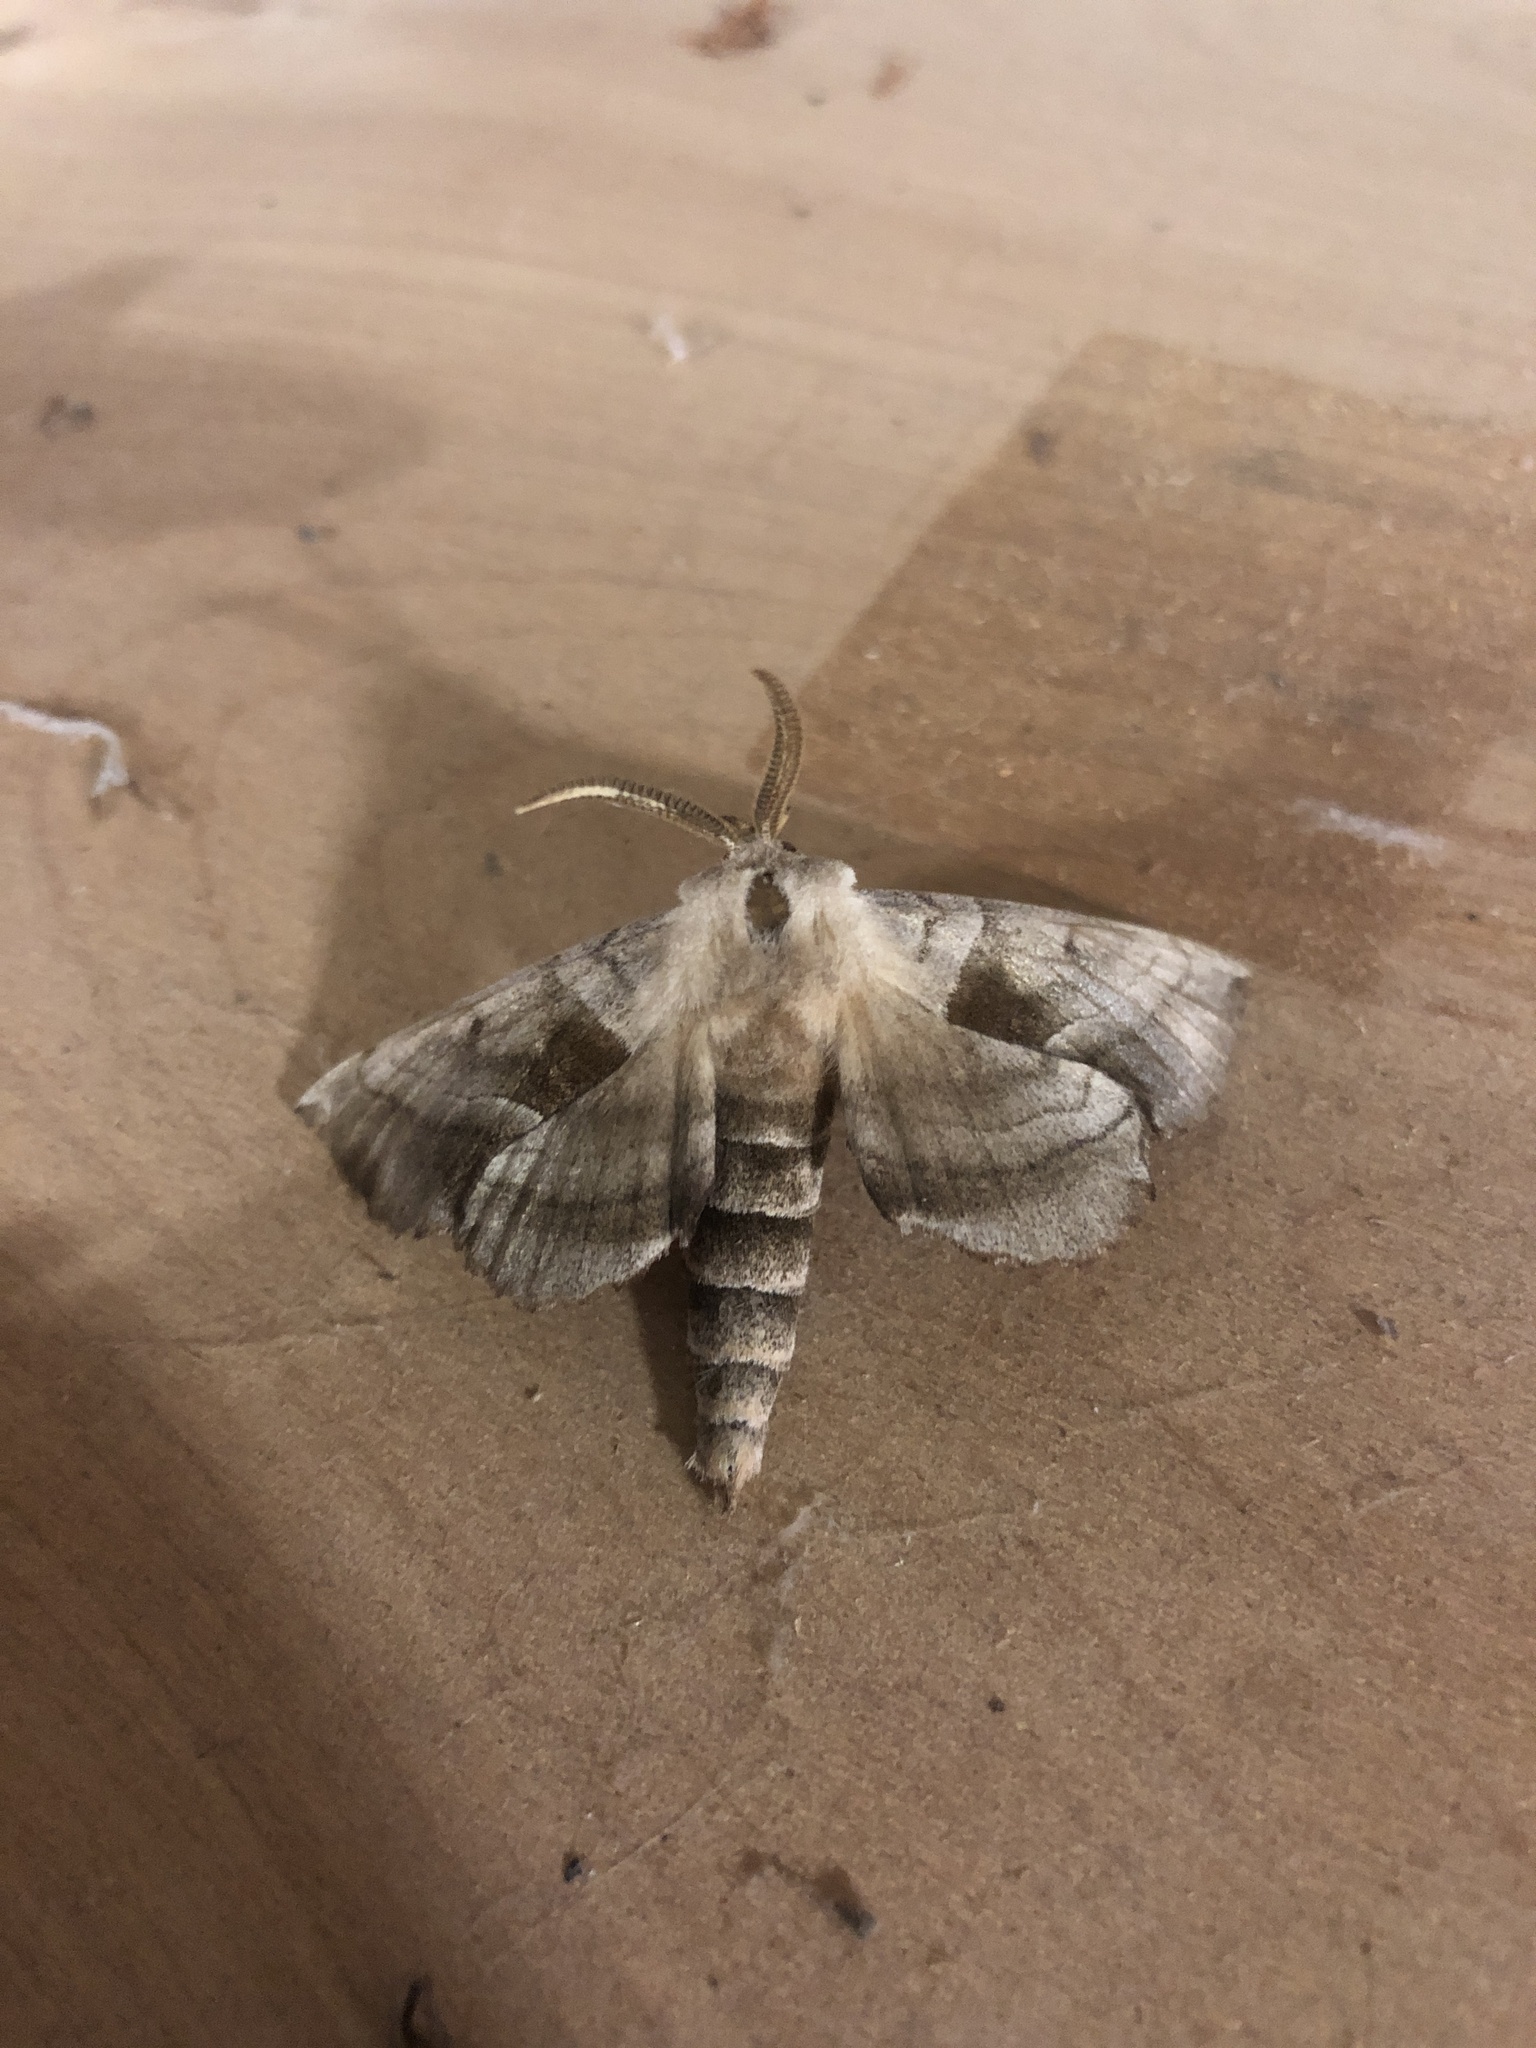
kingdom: Animalia
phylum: Arthropoda
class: Insecta
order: Lepidoptera
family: Sphingidae
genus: Amorpha
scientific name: Amorpha juglandis
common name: Walnut sphinx
